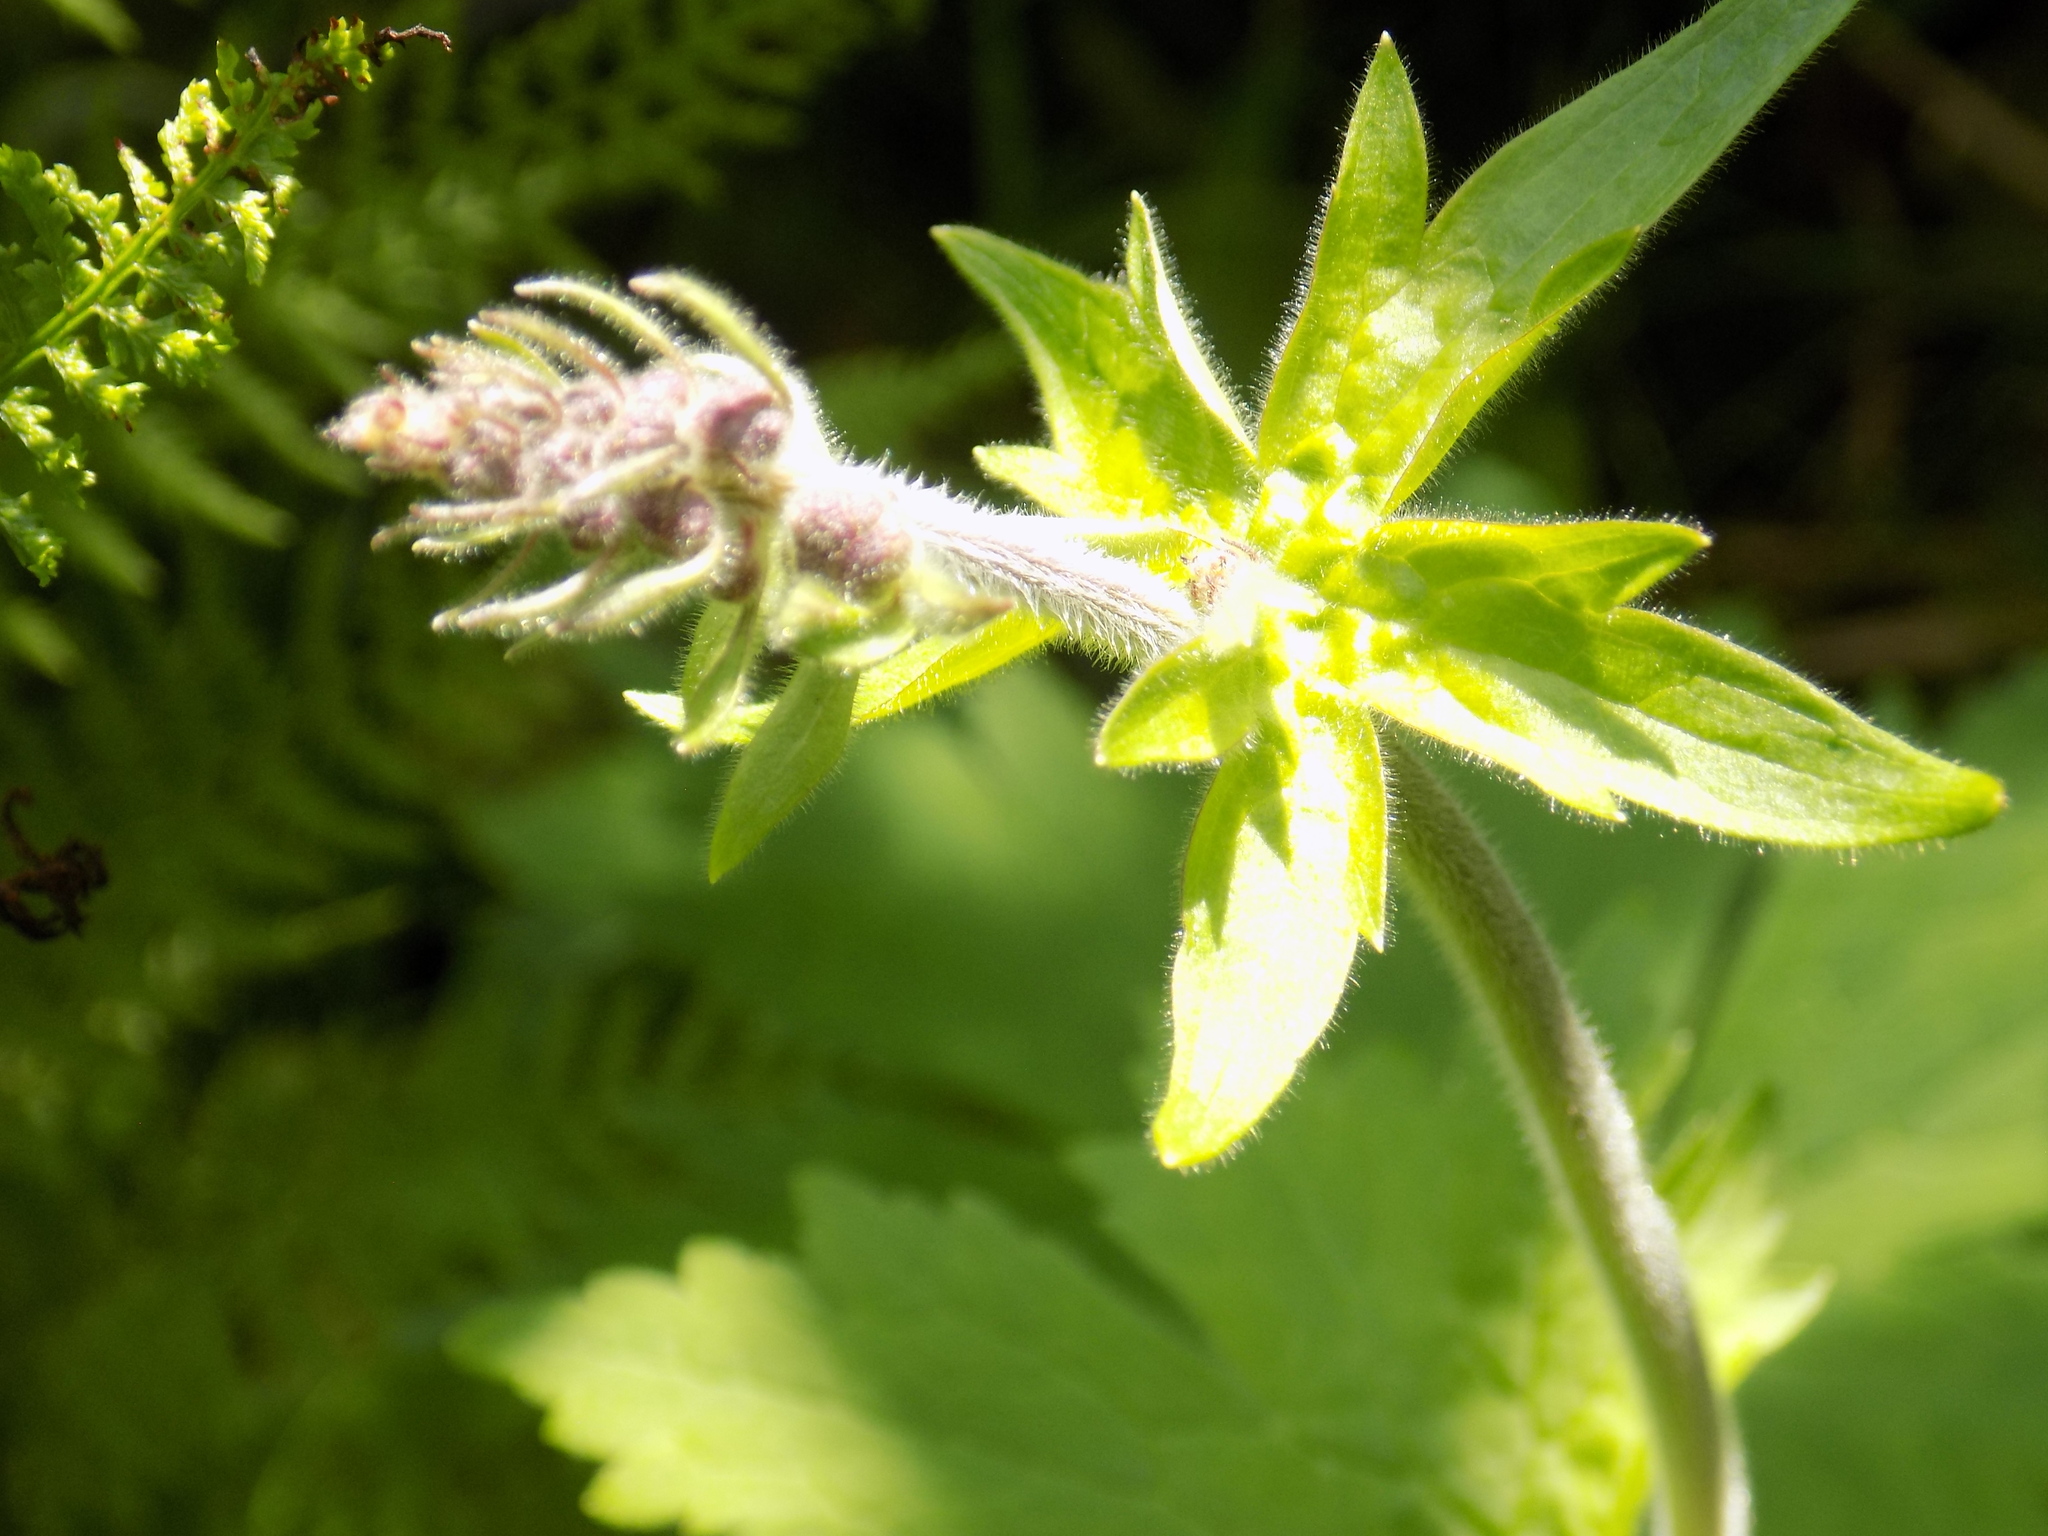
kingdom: Plantae
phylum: Tracheophyta
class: Magnoliopsida
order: Ranunculales
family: Ranunculaceae
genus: Aconitum
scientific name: Aconitum septentrionale
